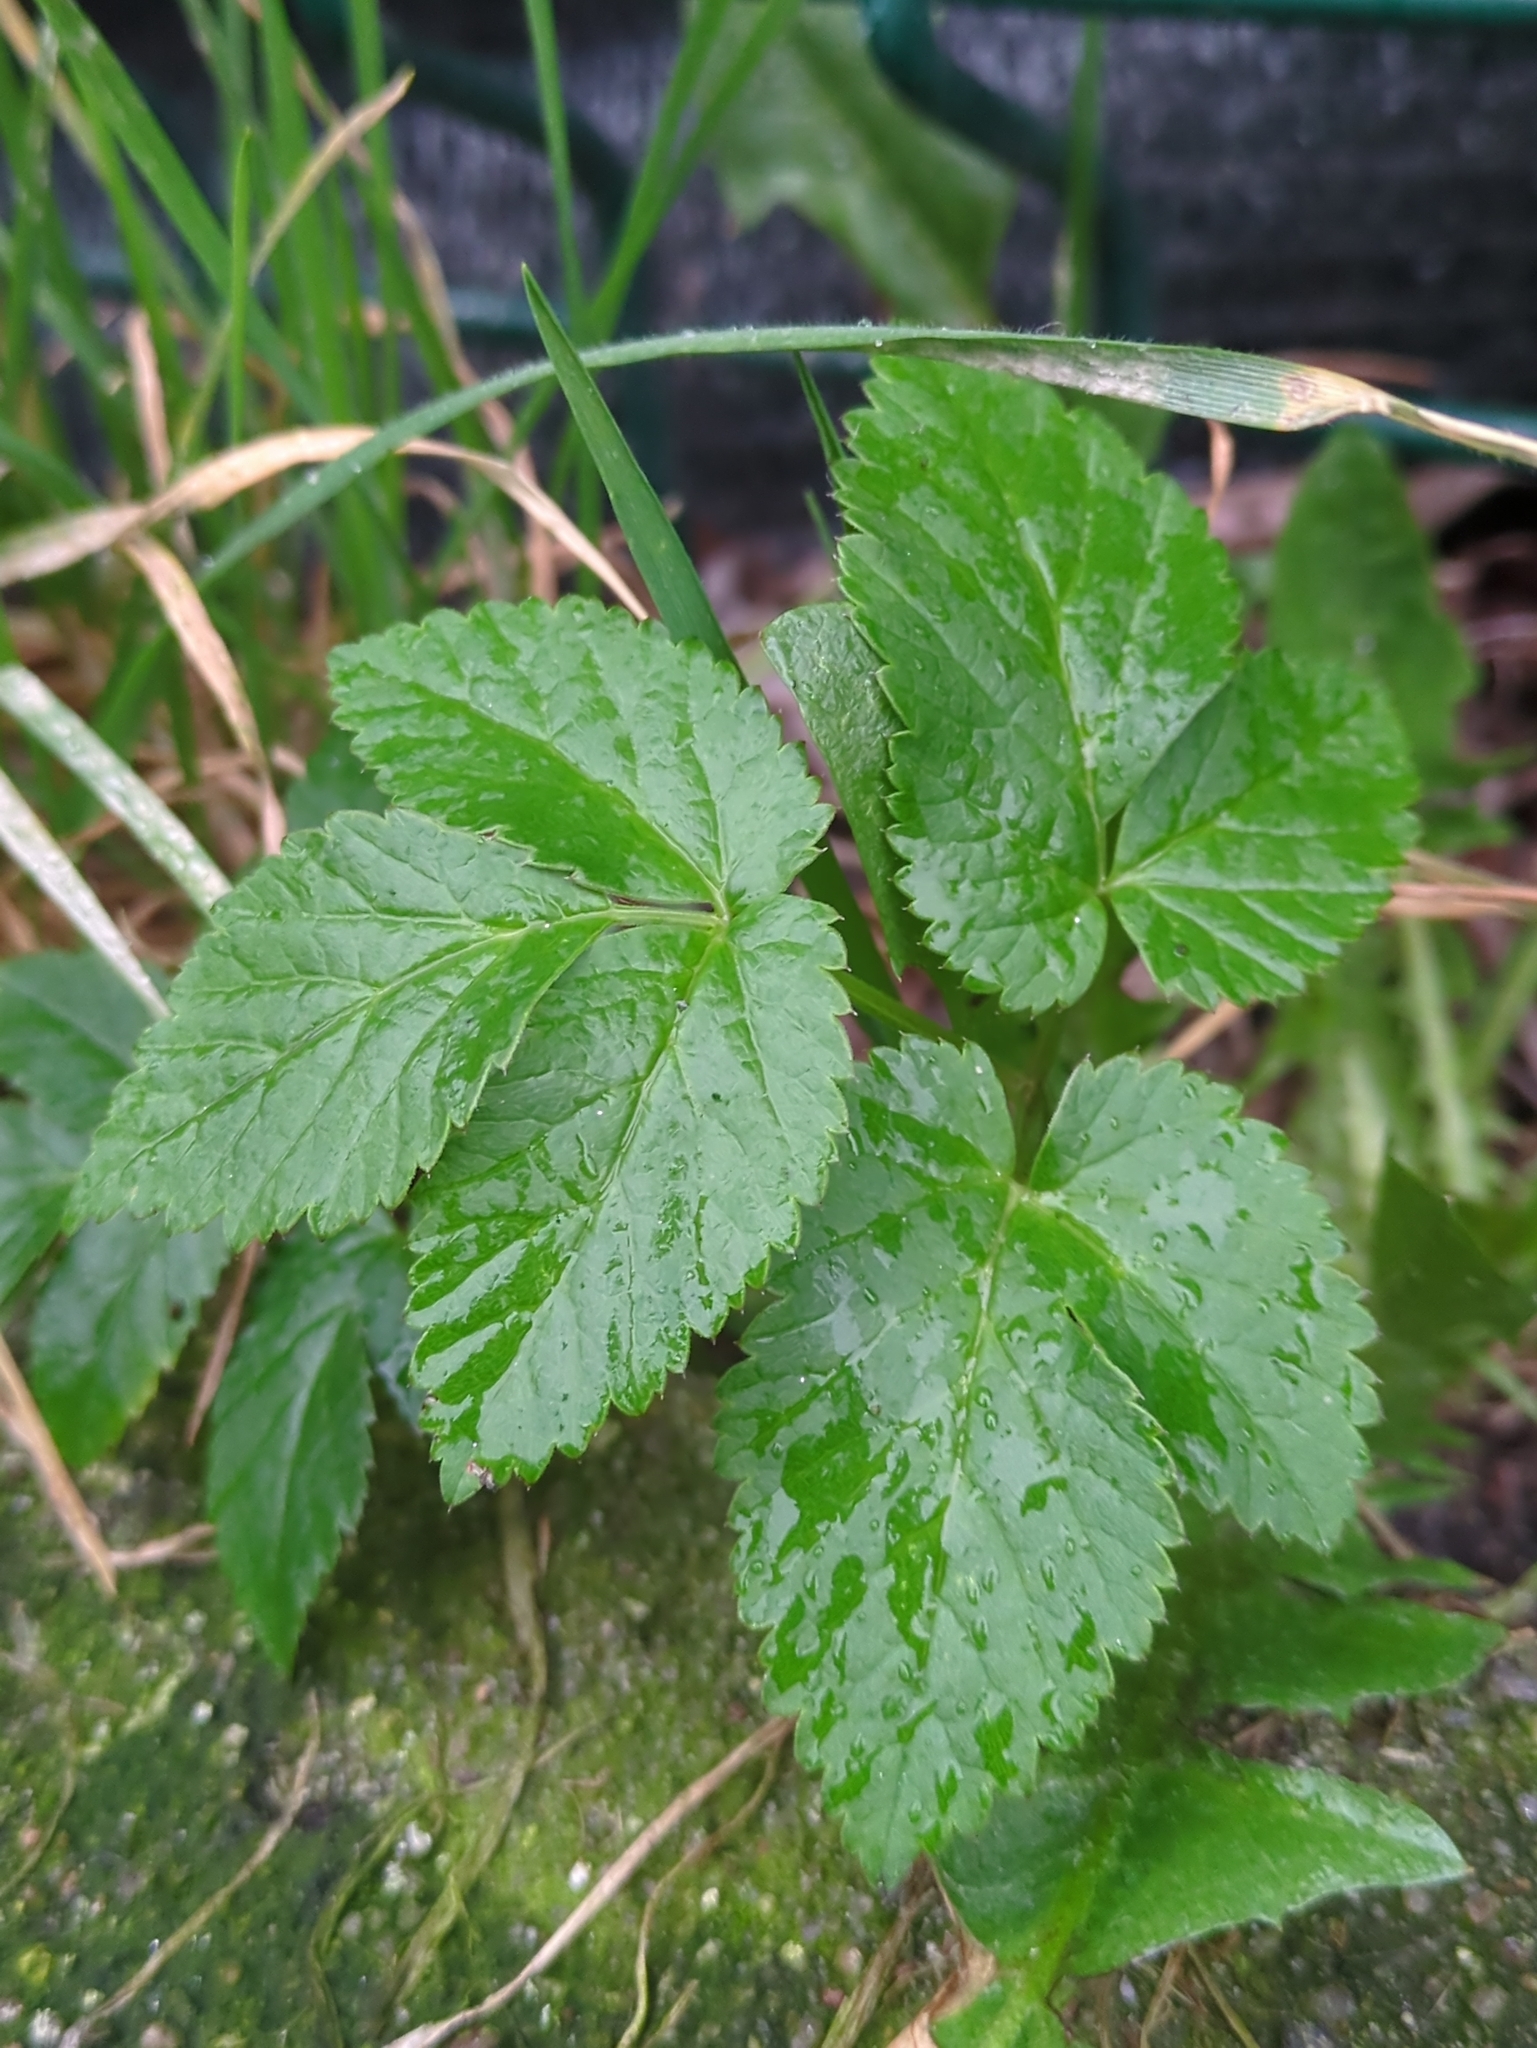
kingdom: Plantae
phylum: Tracheophyta
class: Magnoliopsida
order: Apiales
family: Apiaceae
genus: Aegopodium
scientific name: Aegopodium podagraria
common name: Ground-elder
